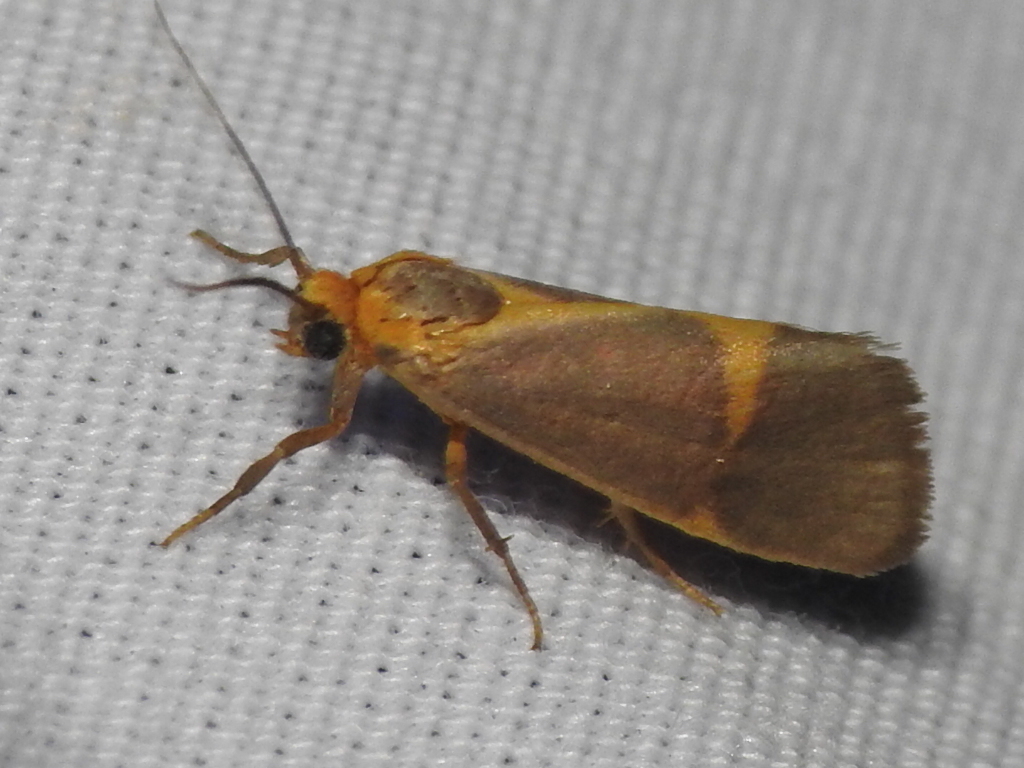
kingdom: Animalia
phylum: Arthropoda
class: Insecta
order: Lepidoptera
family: Erebidae
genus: Cisthene
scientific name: Cisthene tenuifascia
